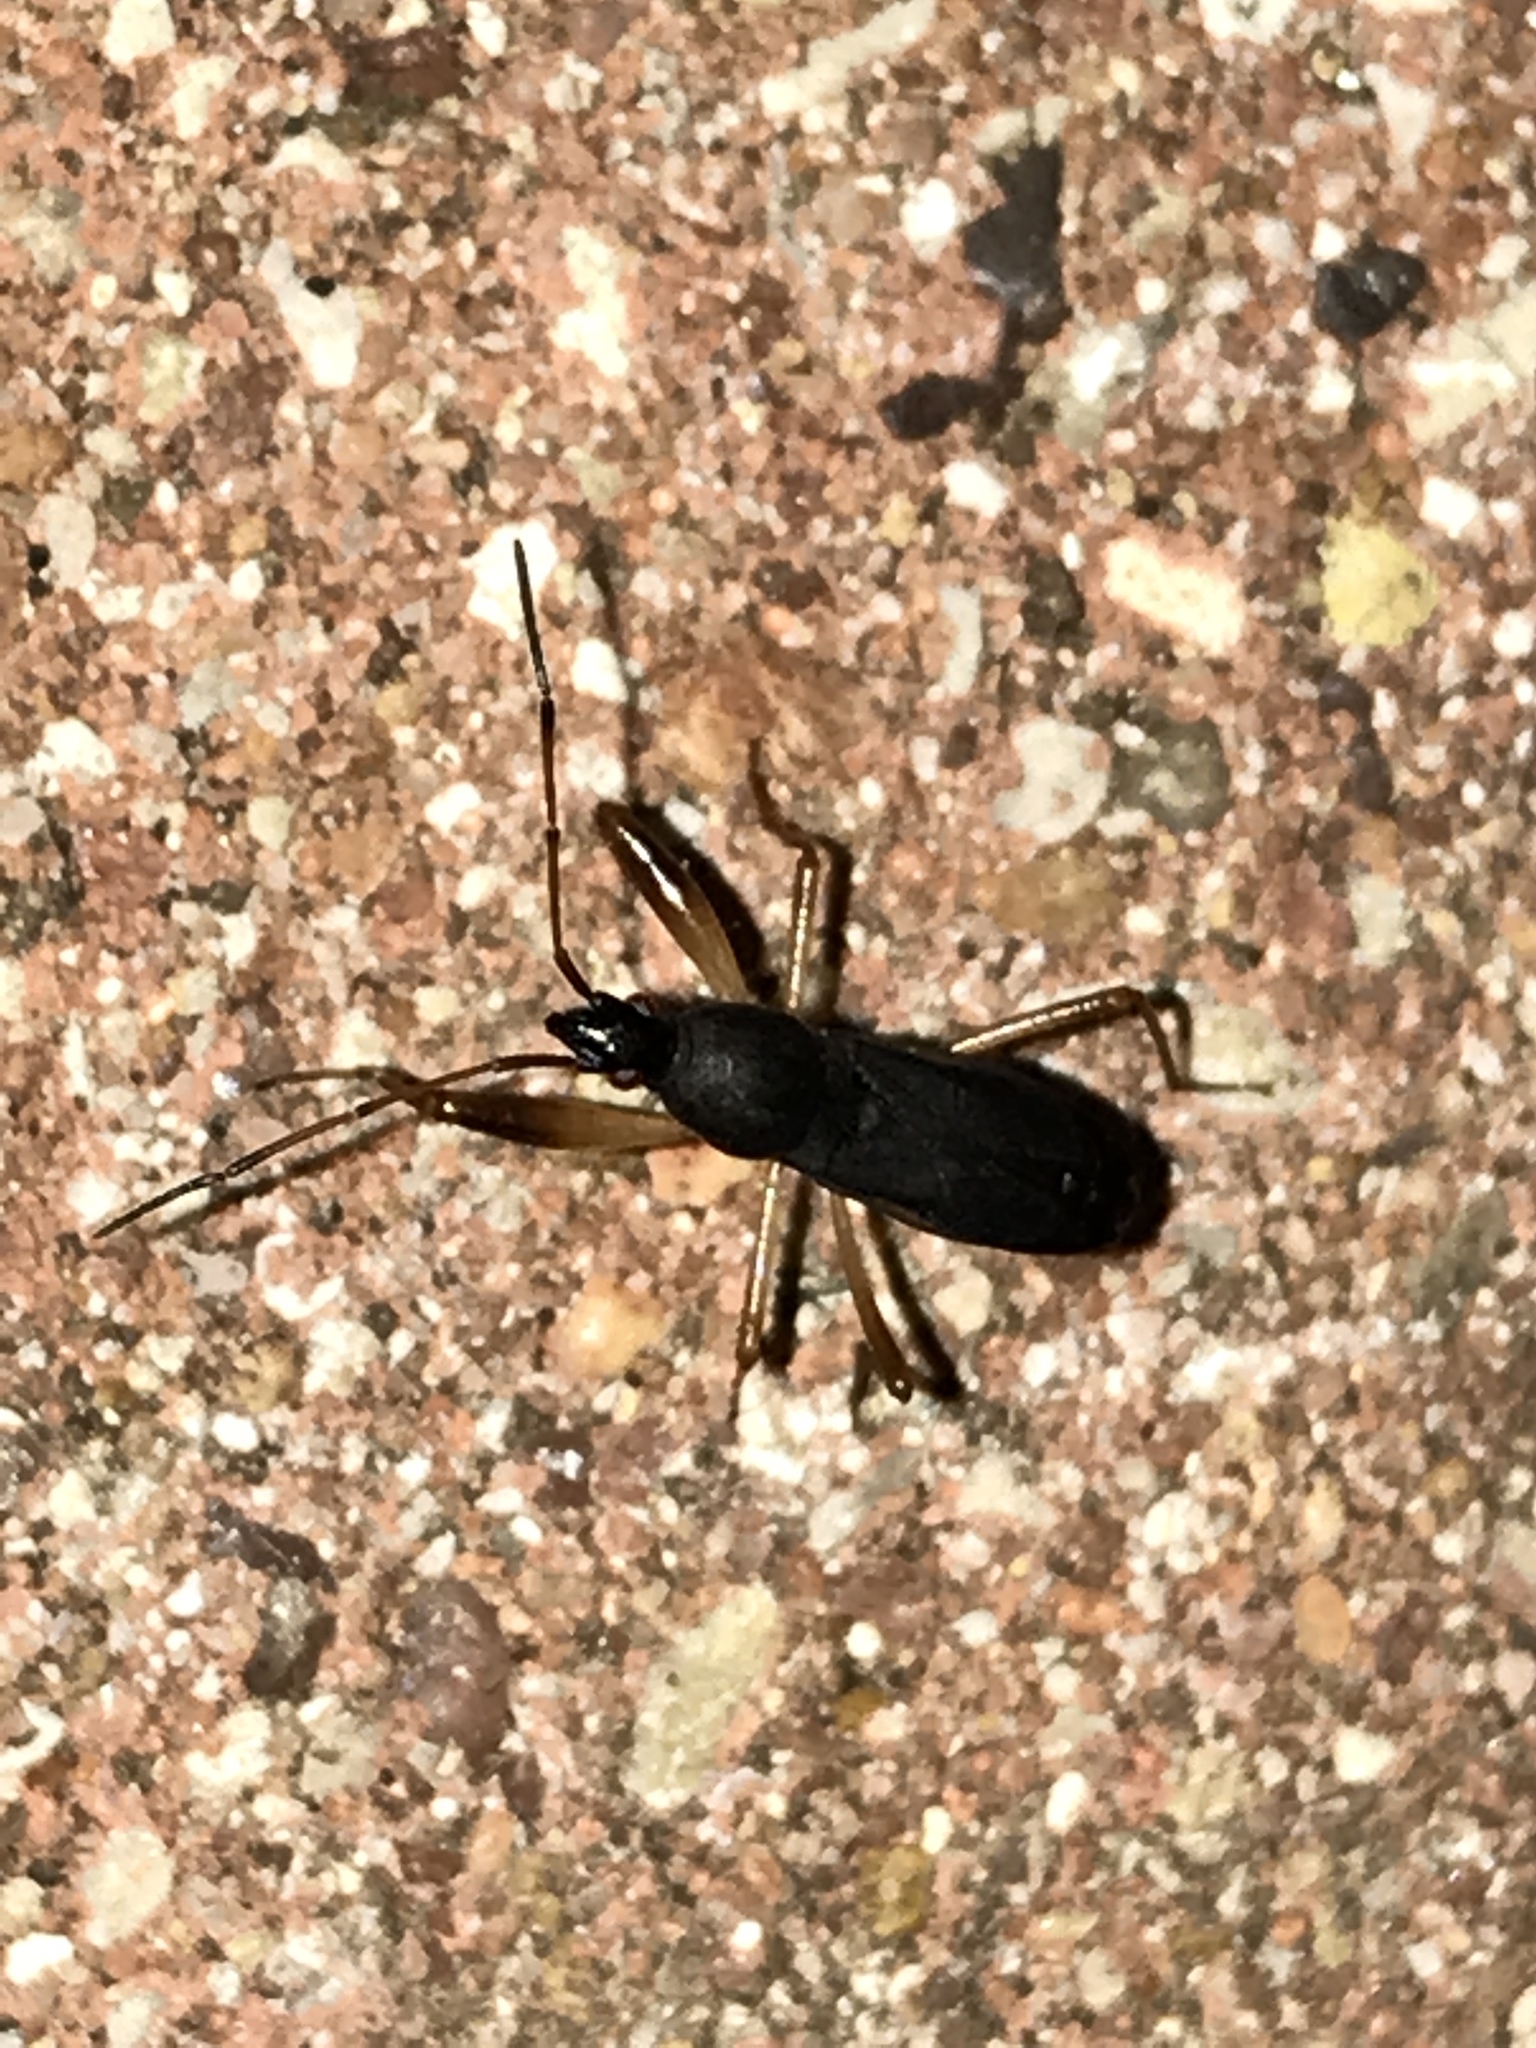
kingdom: Animalia
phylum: Arthropoda
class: Insecta
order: Hemiptera
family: Rhyparochromidae
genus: Cnemodus
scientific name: Cnemodus mavortius
